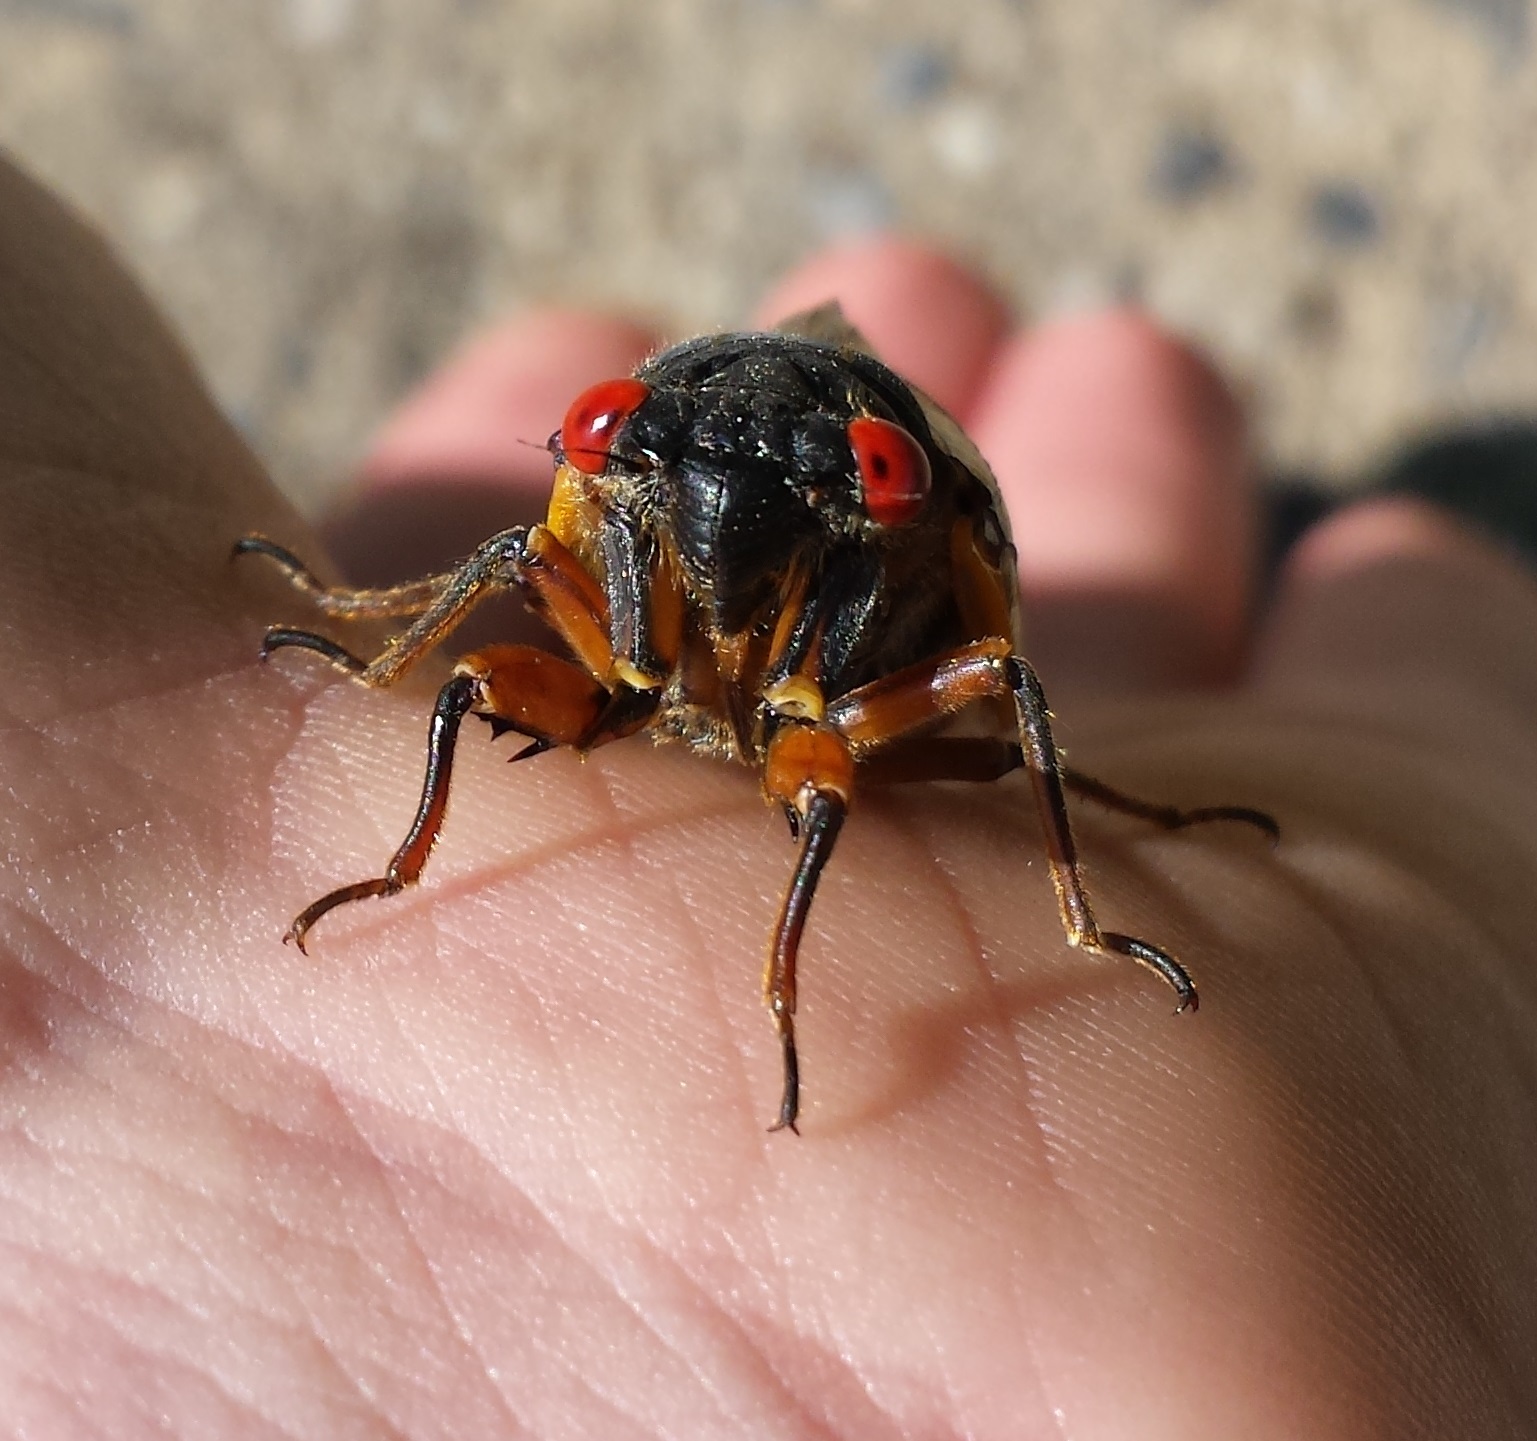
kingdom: Animalia
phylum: Arthropoda
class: Insecta
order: Hemiptera
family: Cicadidae
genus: Magicicada
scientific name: Magicicada septendecim
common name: Periodical cicada
